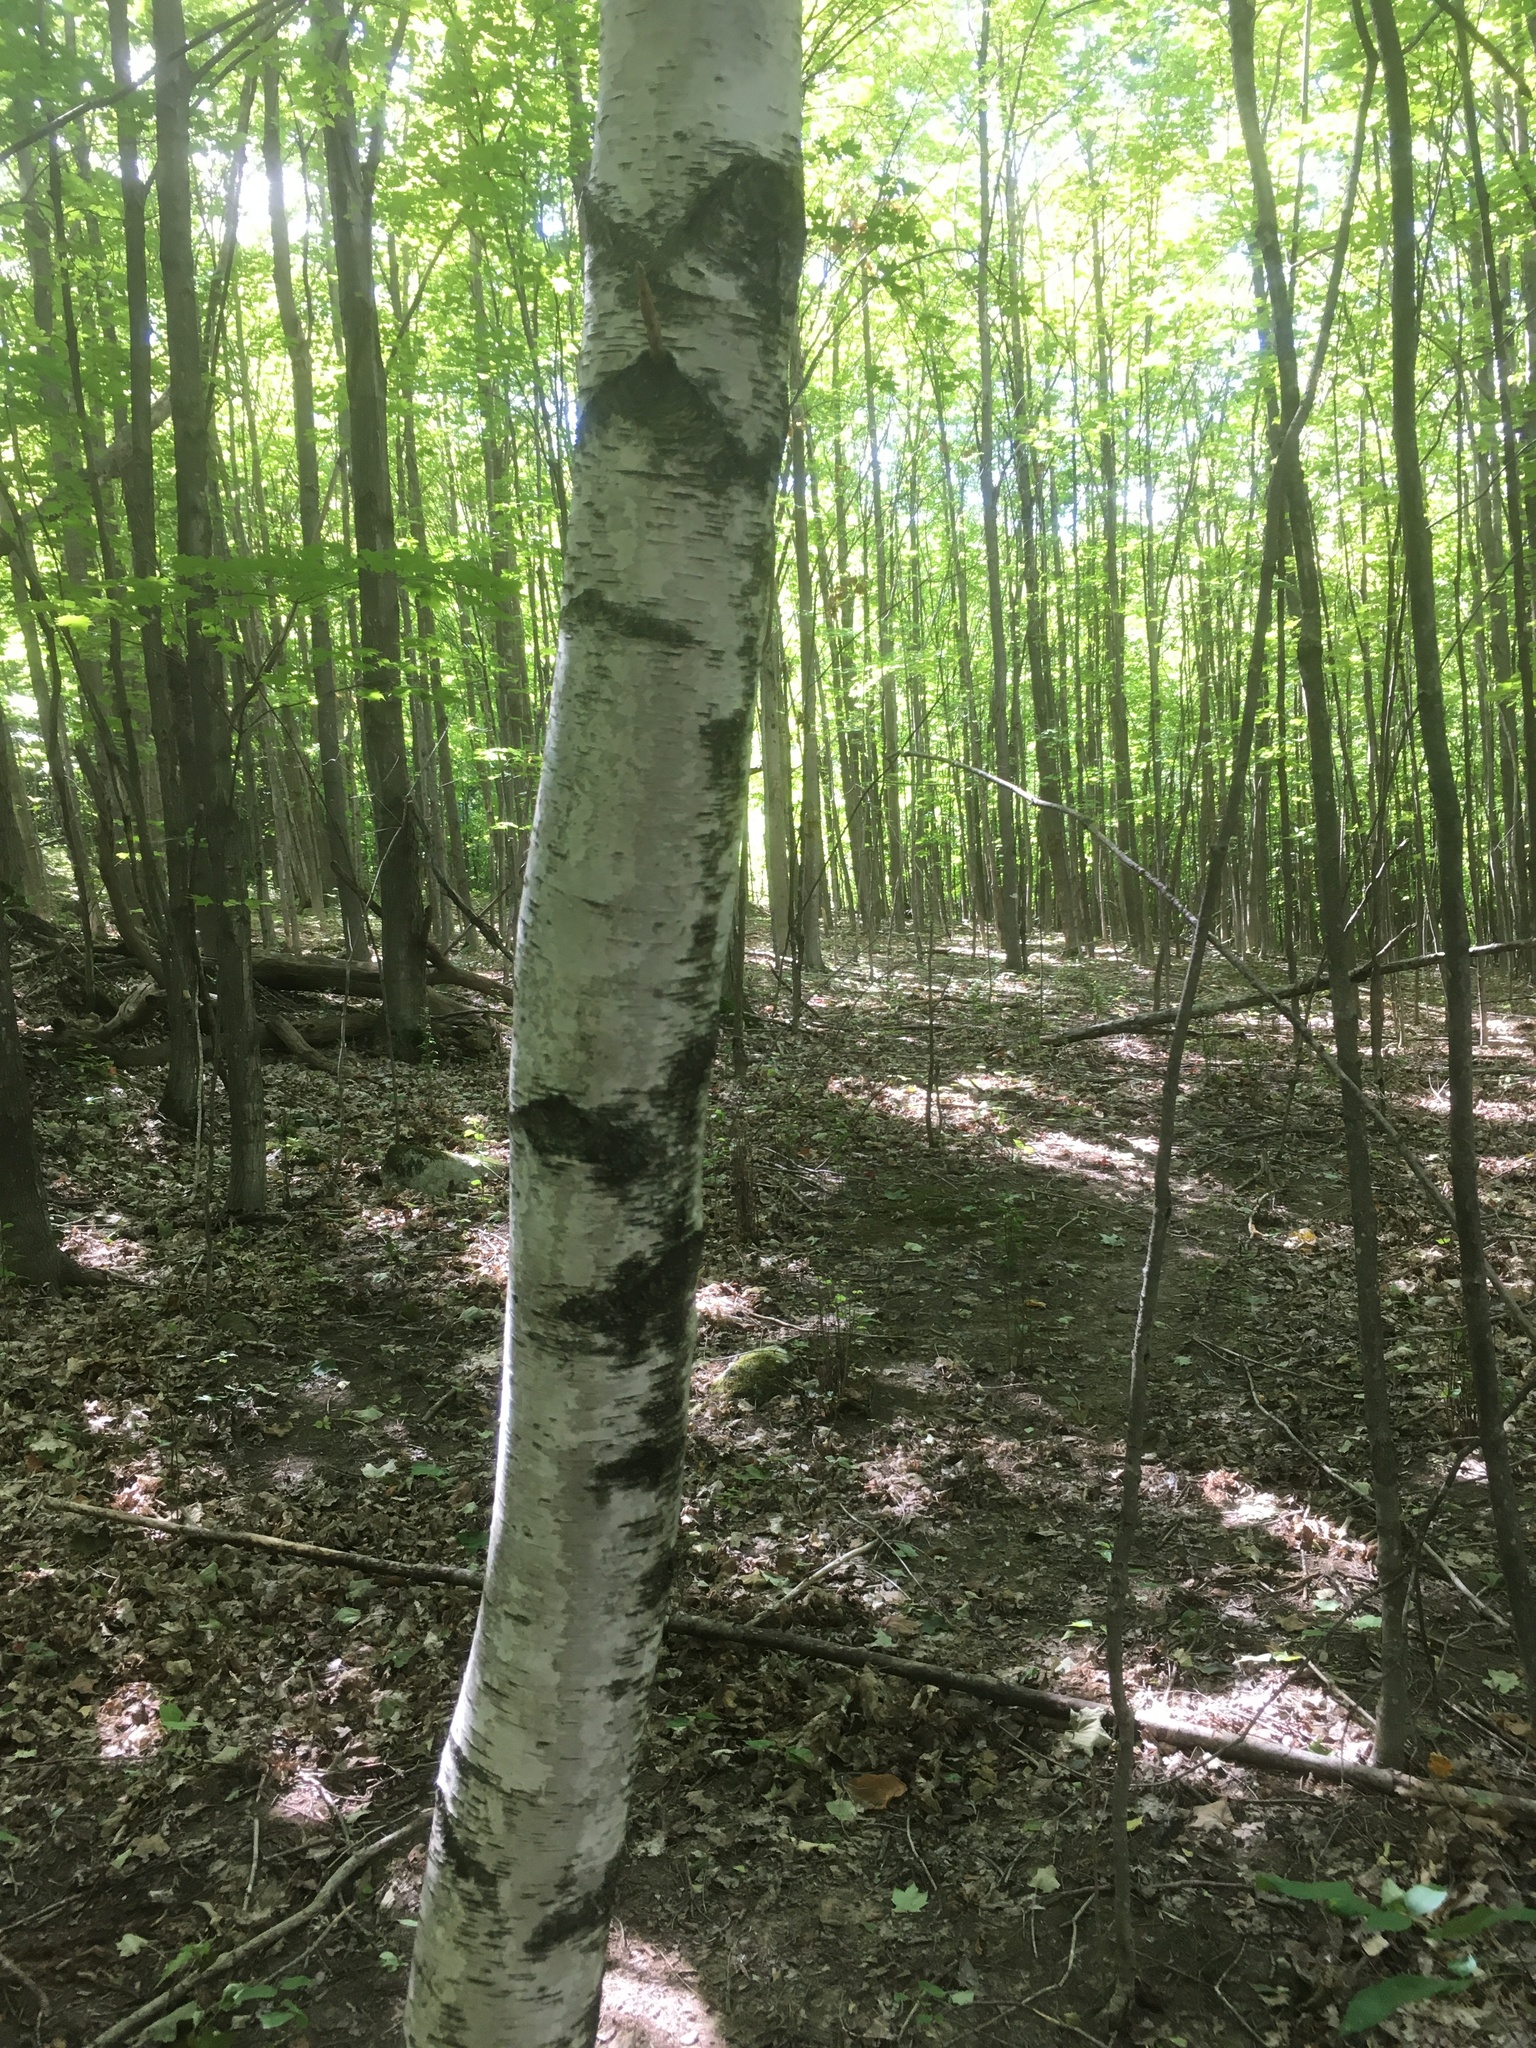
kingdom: Plantae
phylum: Tracheophyta
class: Magnoliopsida
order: Fagales
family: Betulaceae
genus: Betula
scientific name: Betula populifolia
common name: Fire birch
